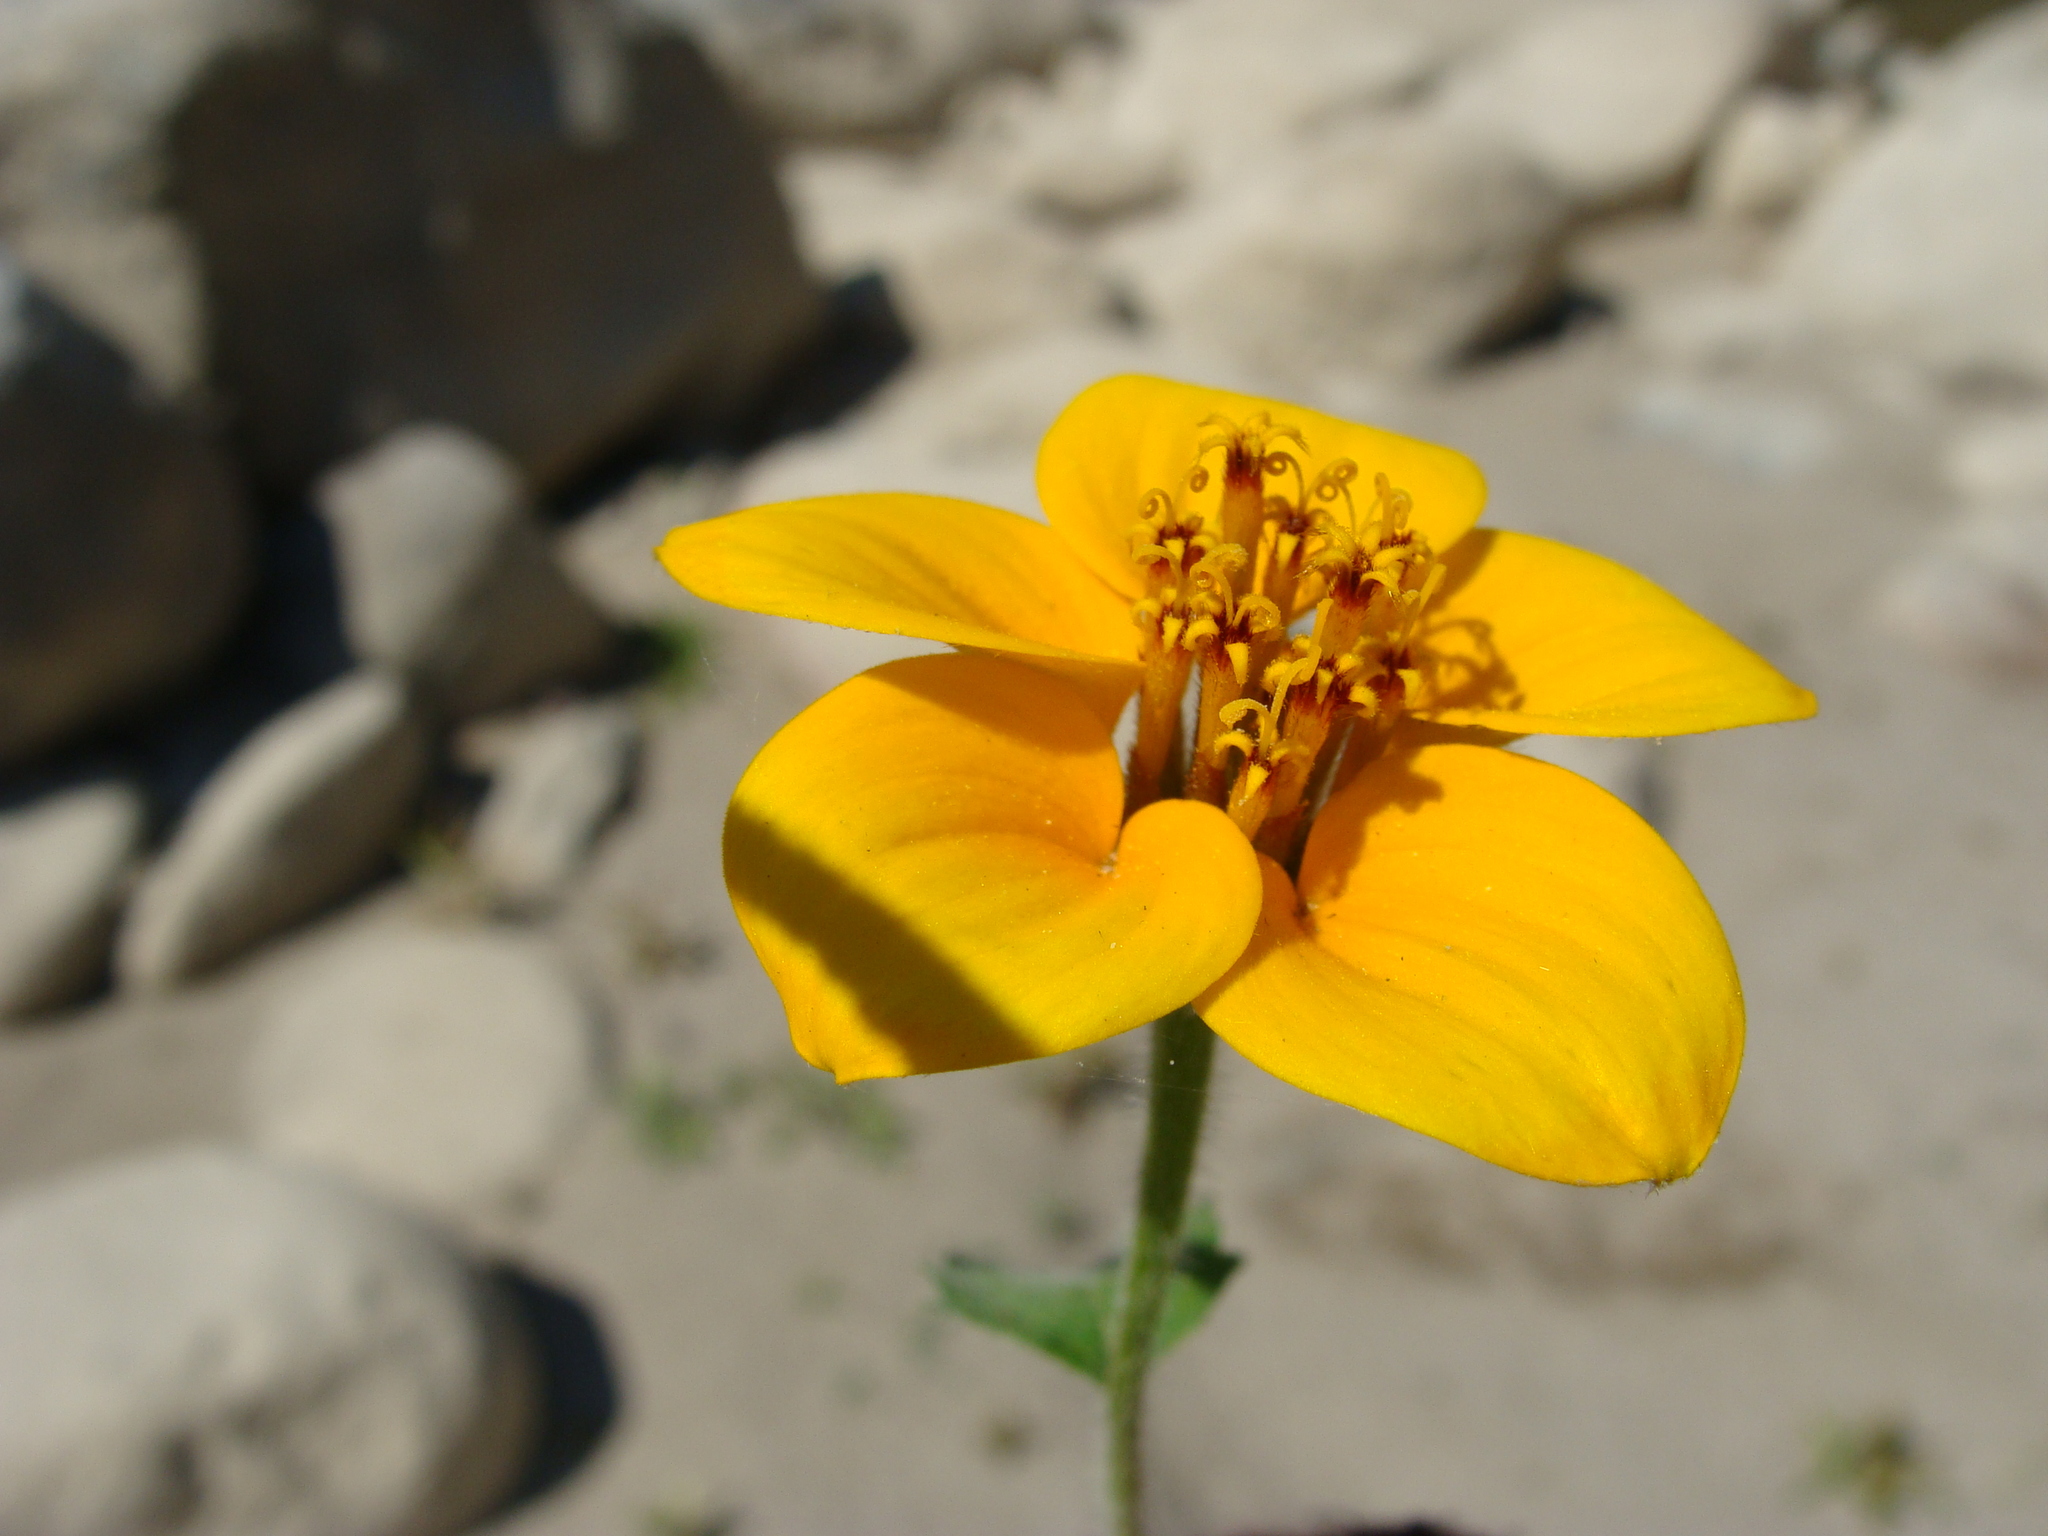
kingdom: Plantae
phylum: Tracheophyta
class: Magnoliopsida
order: Asterales
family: Asteraceae
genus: Sclerocarpus
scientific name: Sclerocarpus uniserialis
